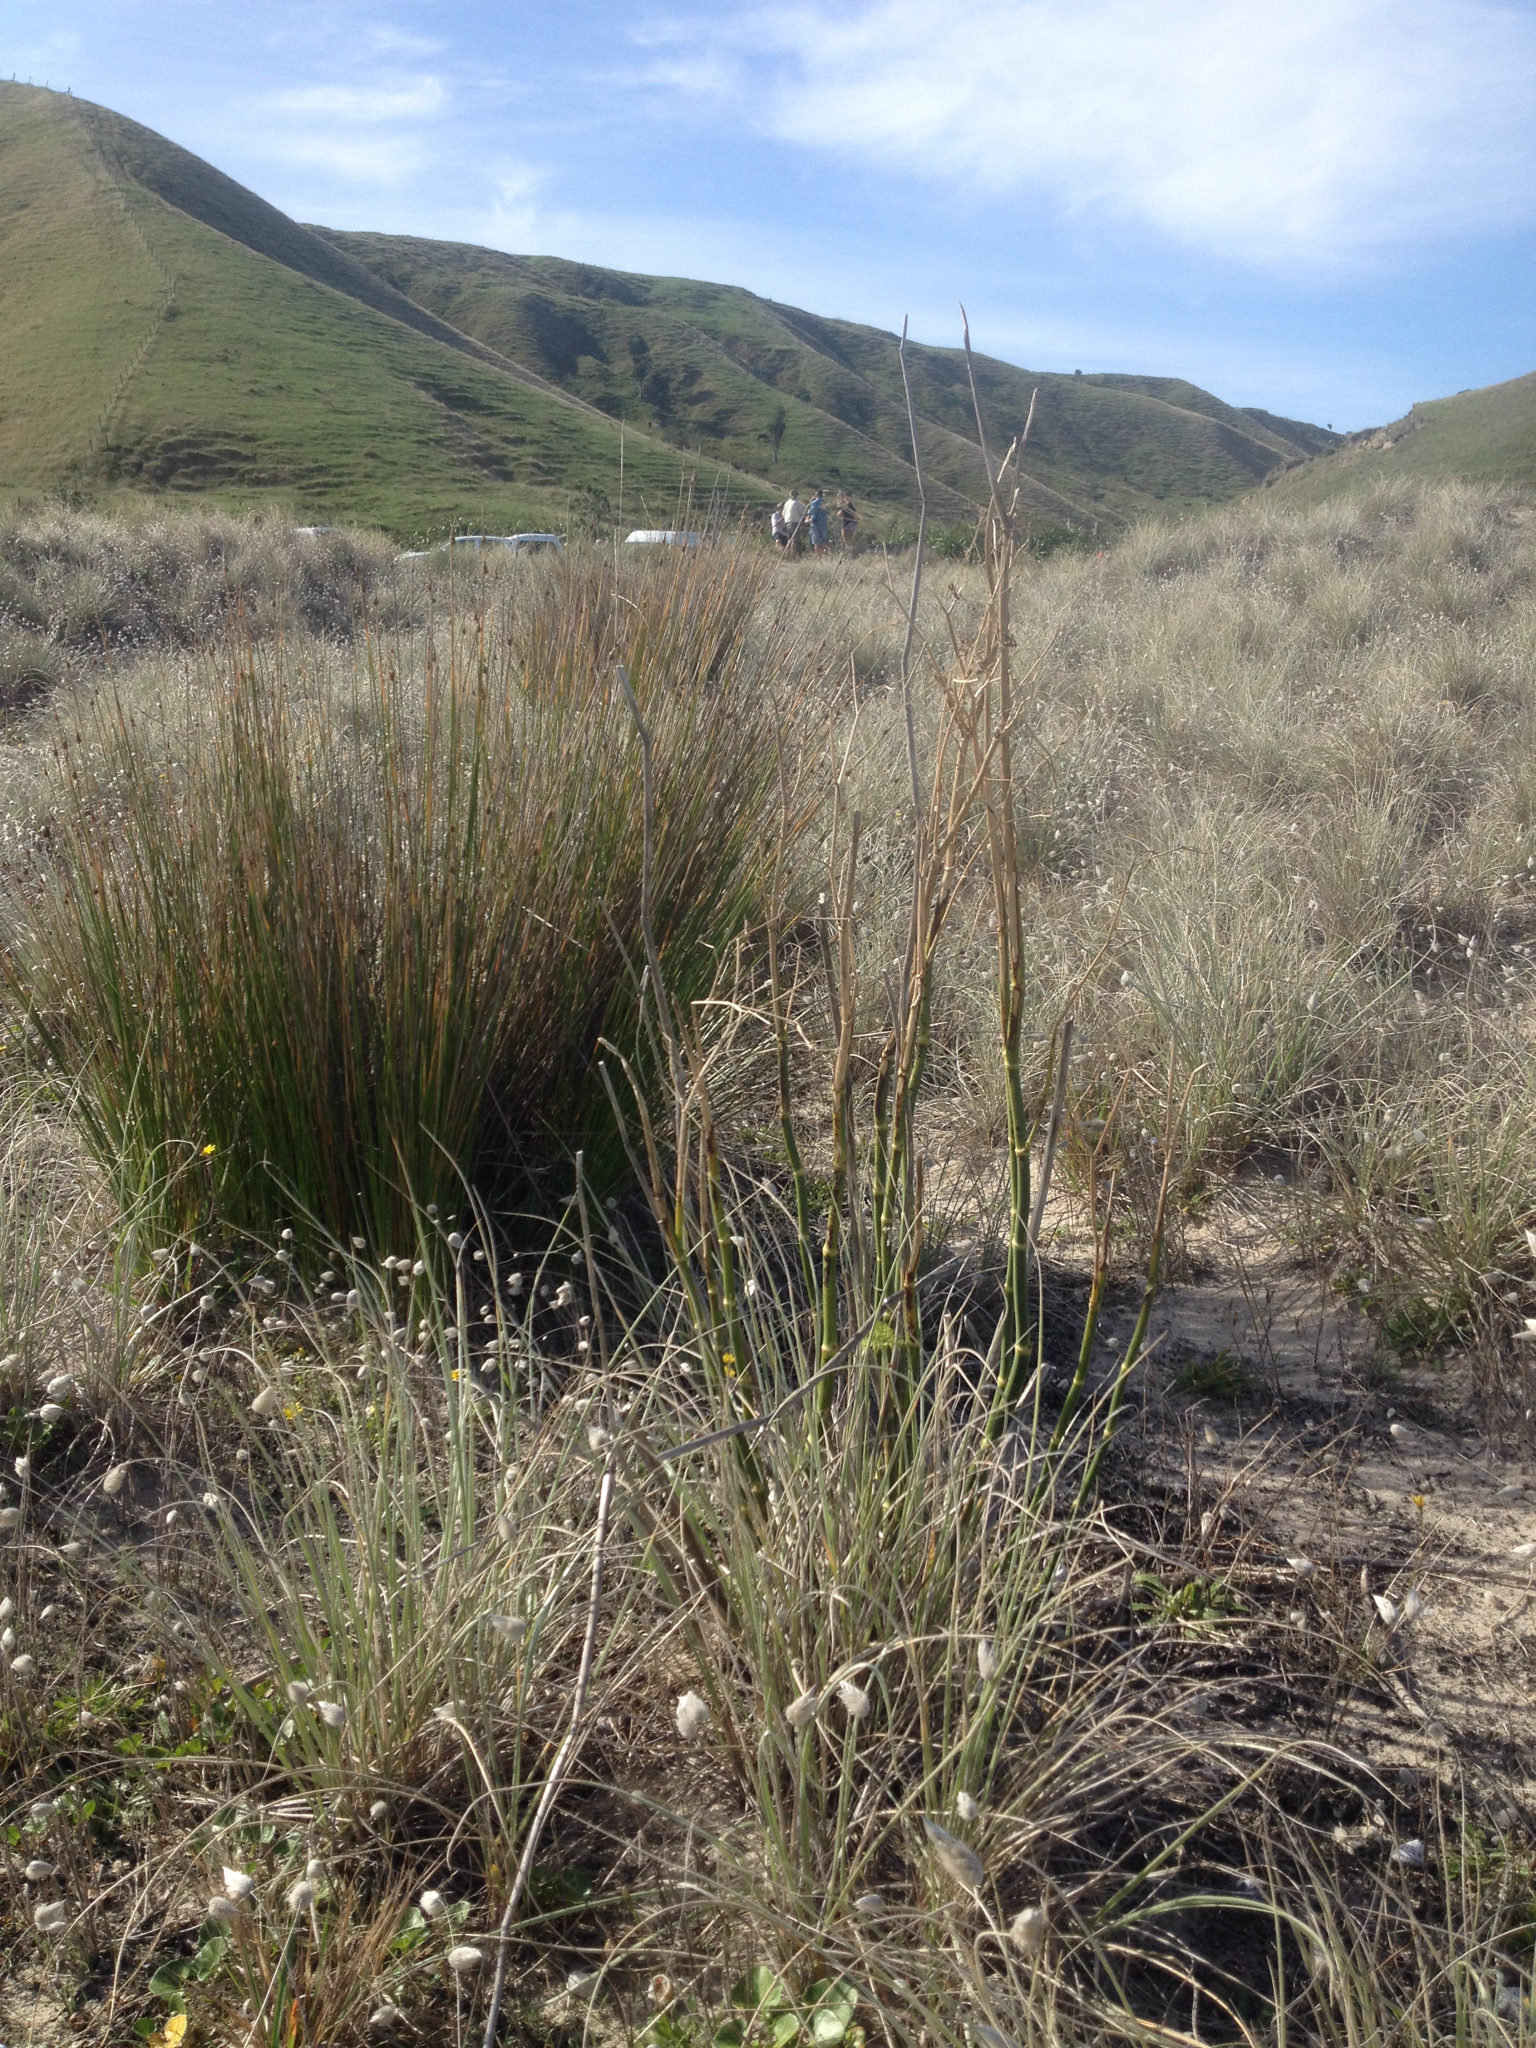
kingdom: Plantae
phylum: Tracheophyta
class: Magnoliopsida
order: Apiales
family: Apiaceae
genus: Foeniculum
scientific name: Foeniculum vulgare
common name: Fennel
